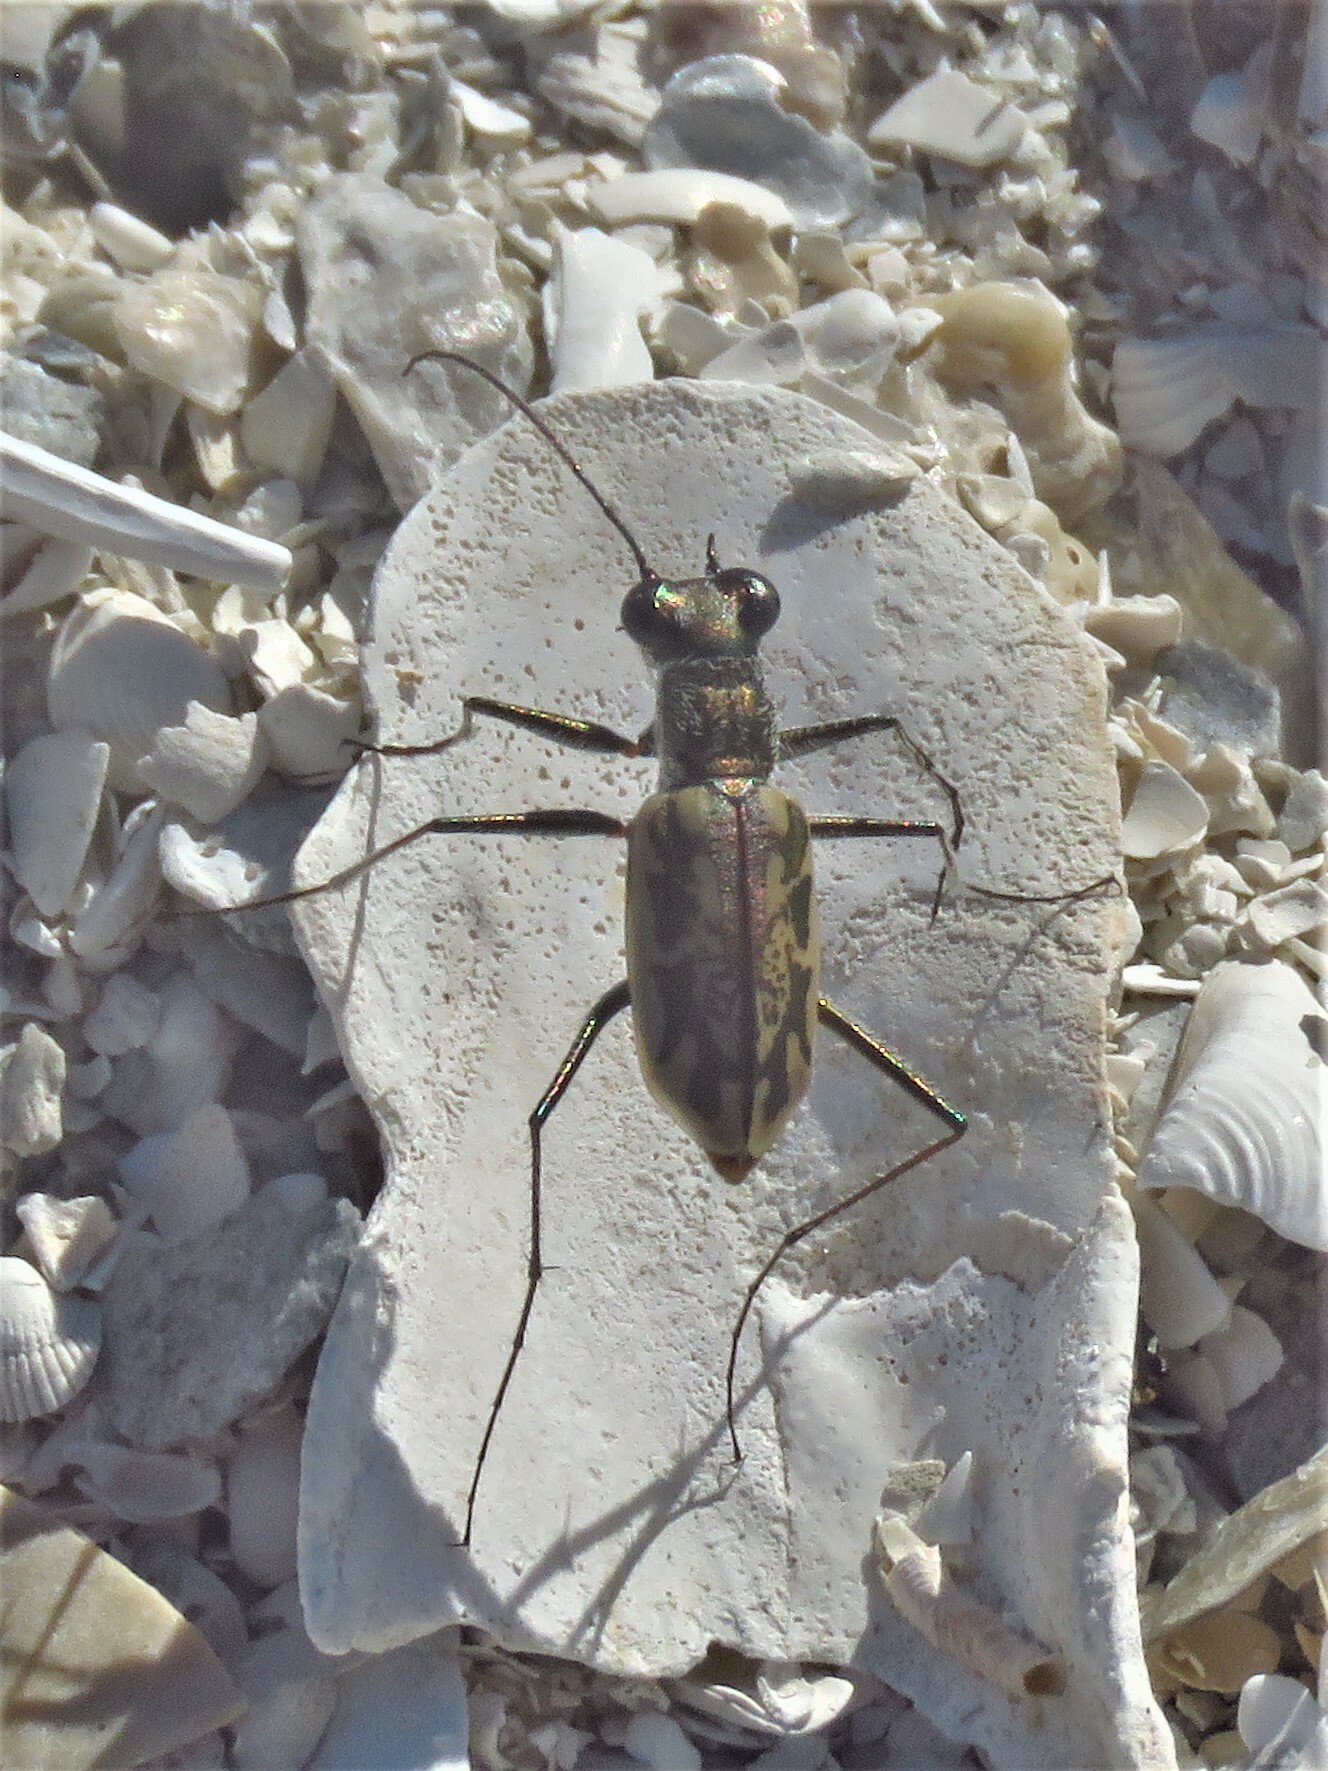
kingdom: Animalia
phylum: Arthropoda
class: Insecta
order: Coleoptera
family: Carabidae
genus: Ellipsoptera
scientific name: Ellipsoptera hamata
